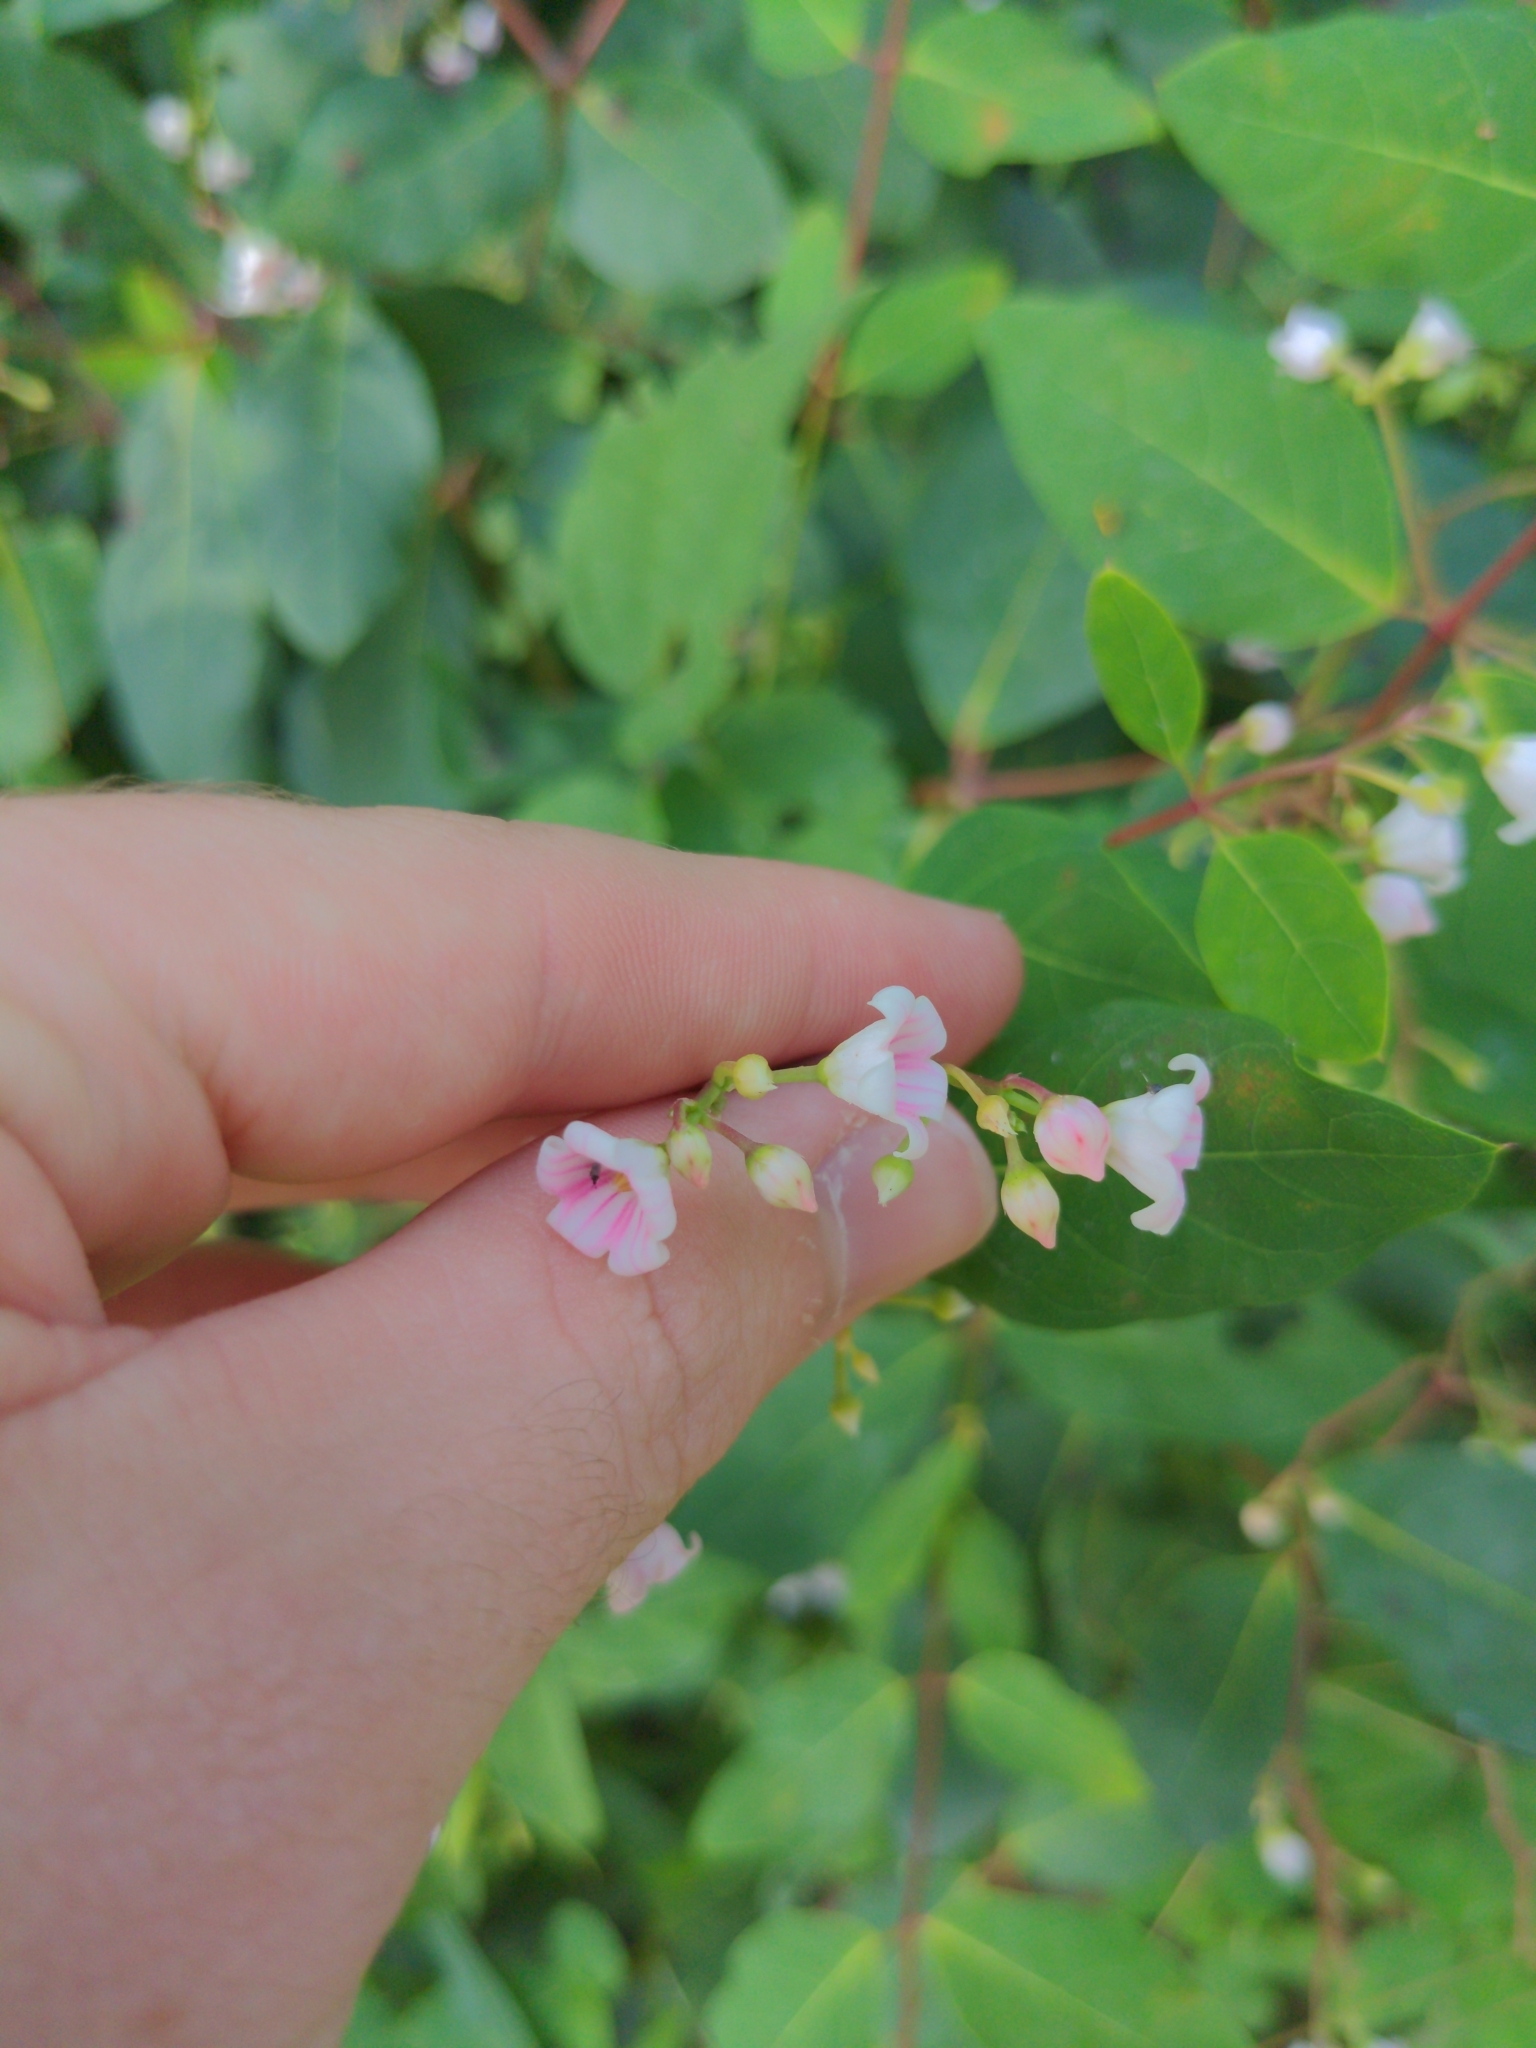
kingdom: Plantae
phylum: Tracheophyta
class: Magnoliopsida
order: Gentianales
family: Apocynaceae
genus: Apocynum
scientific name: Apocynum androsaemifolium
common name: Spreading dogbane
